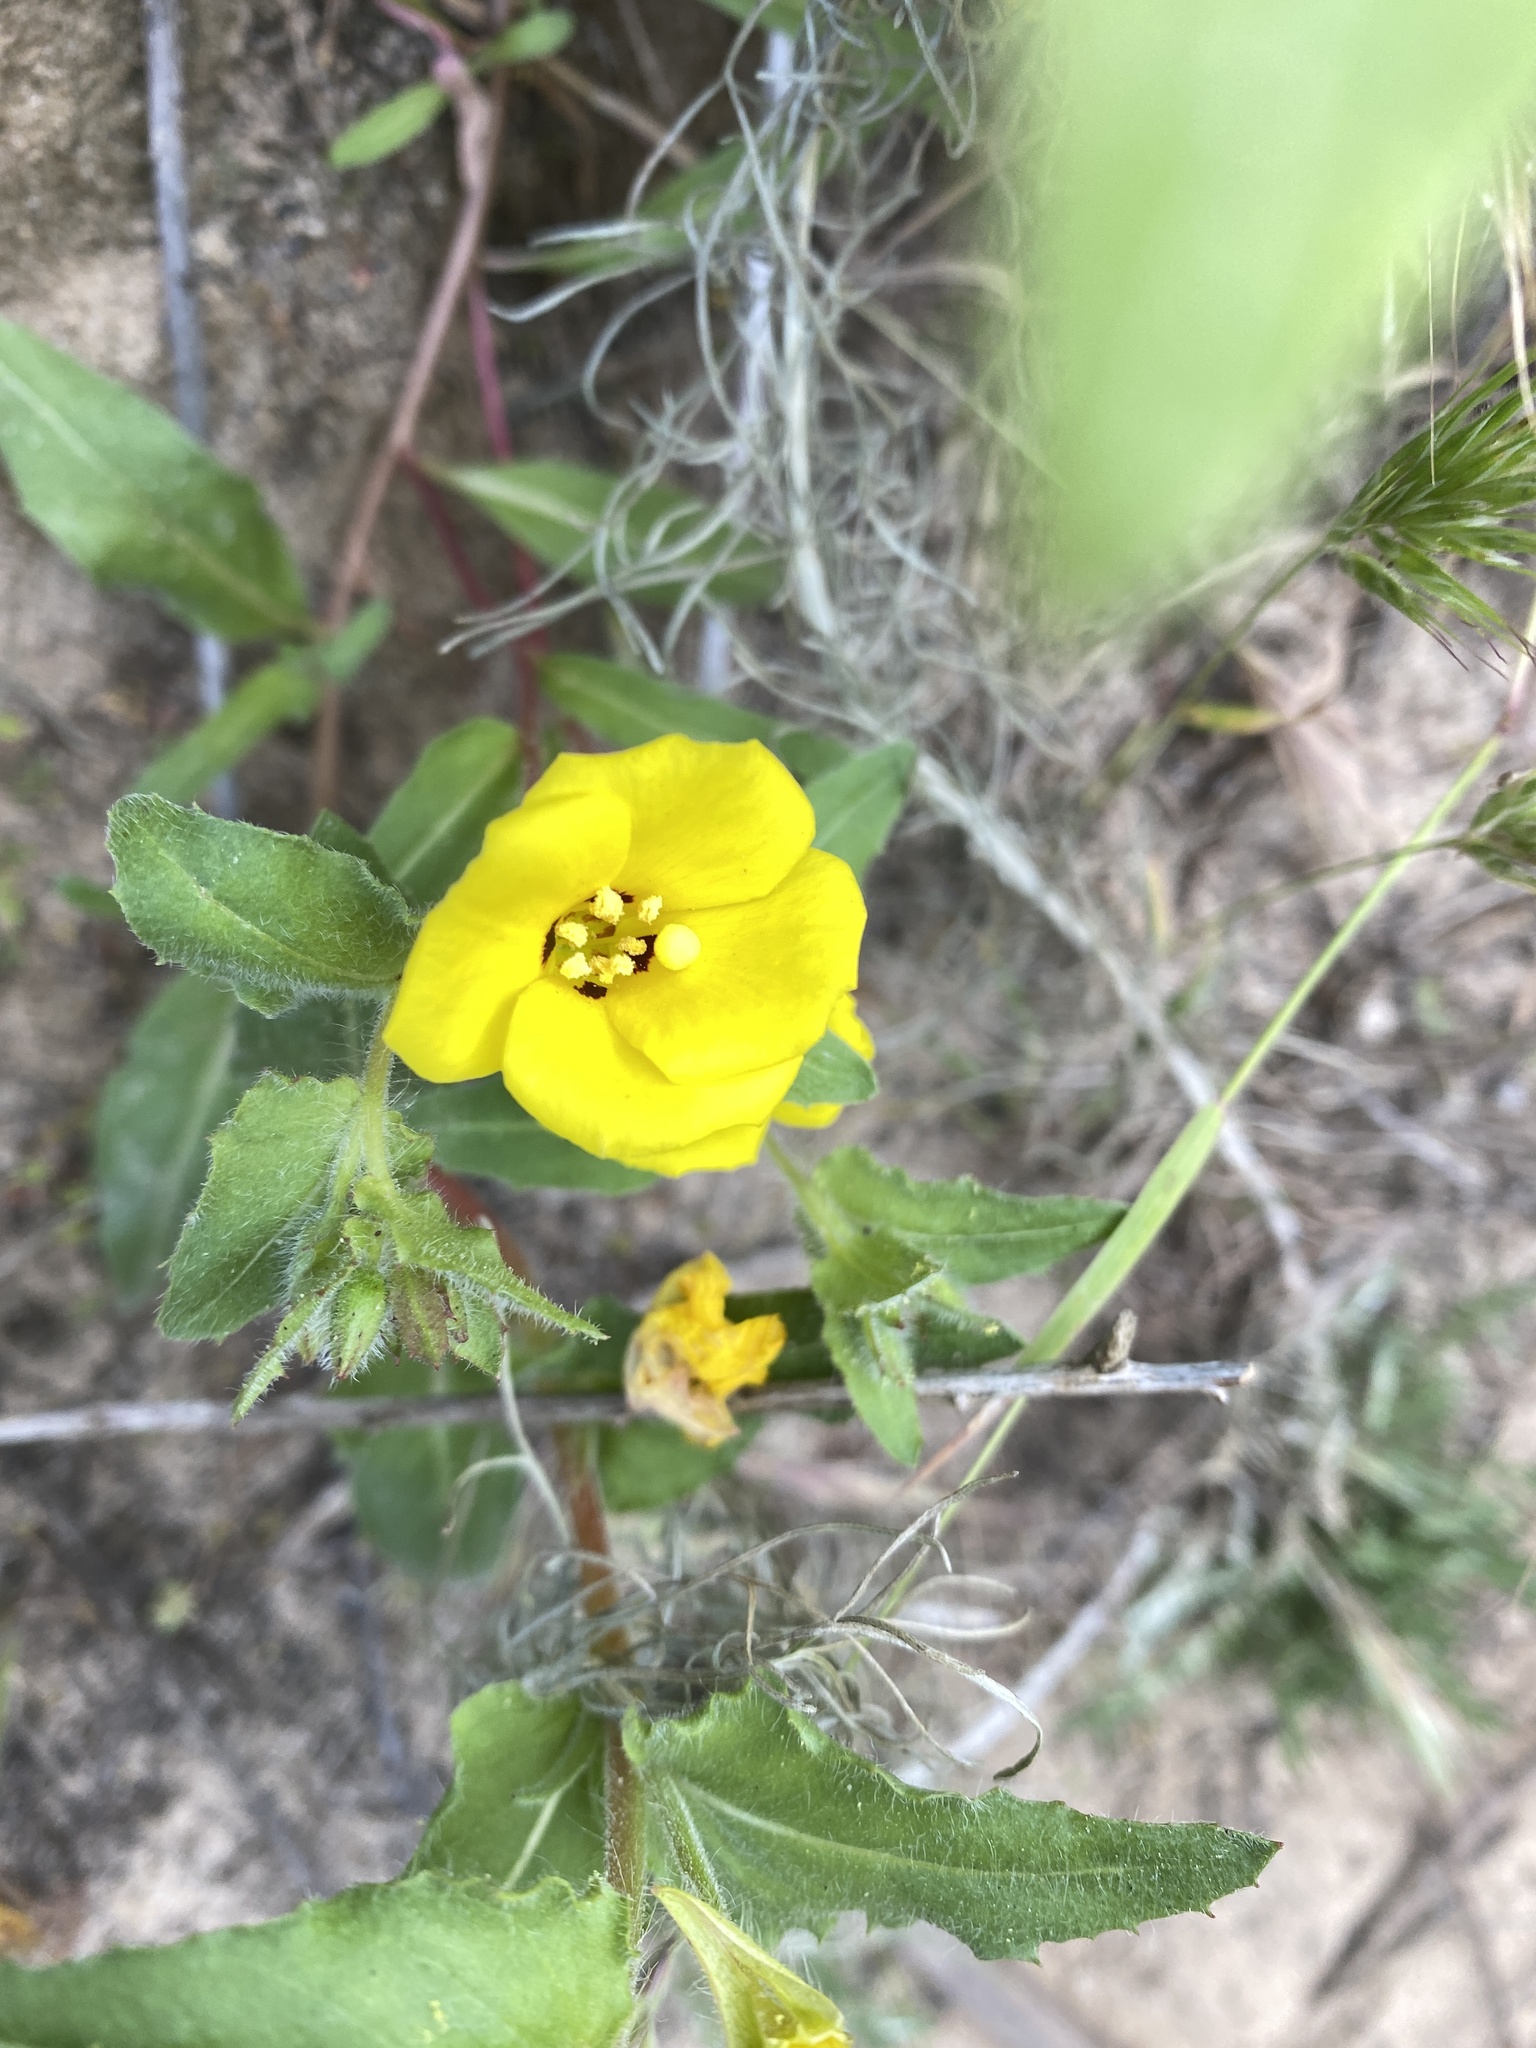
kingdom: Plantae
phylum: Tracheophyta
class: Magnoliopsida
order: Myrtales
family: Onagraceae
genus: Camissoniopsis
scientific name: Camissoniopsis bistorta
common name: Southern suncup
